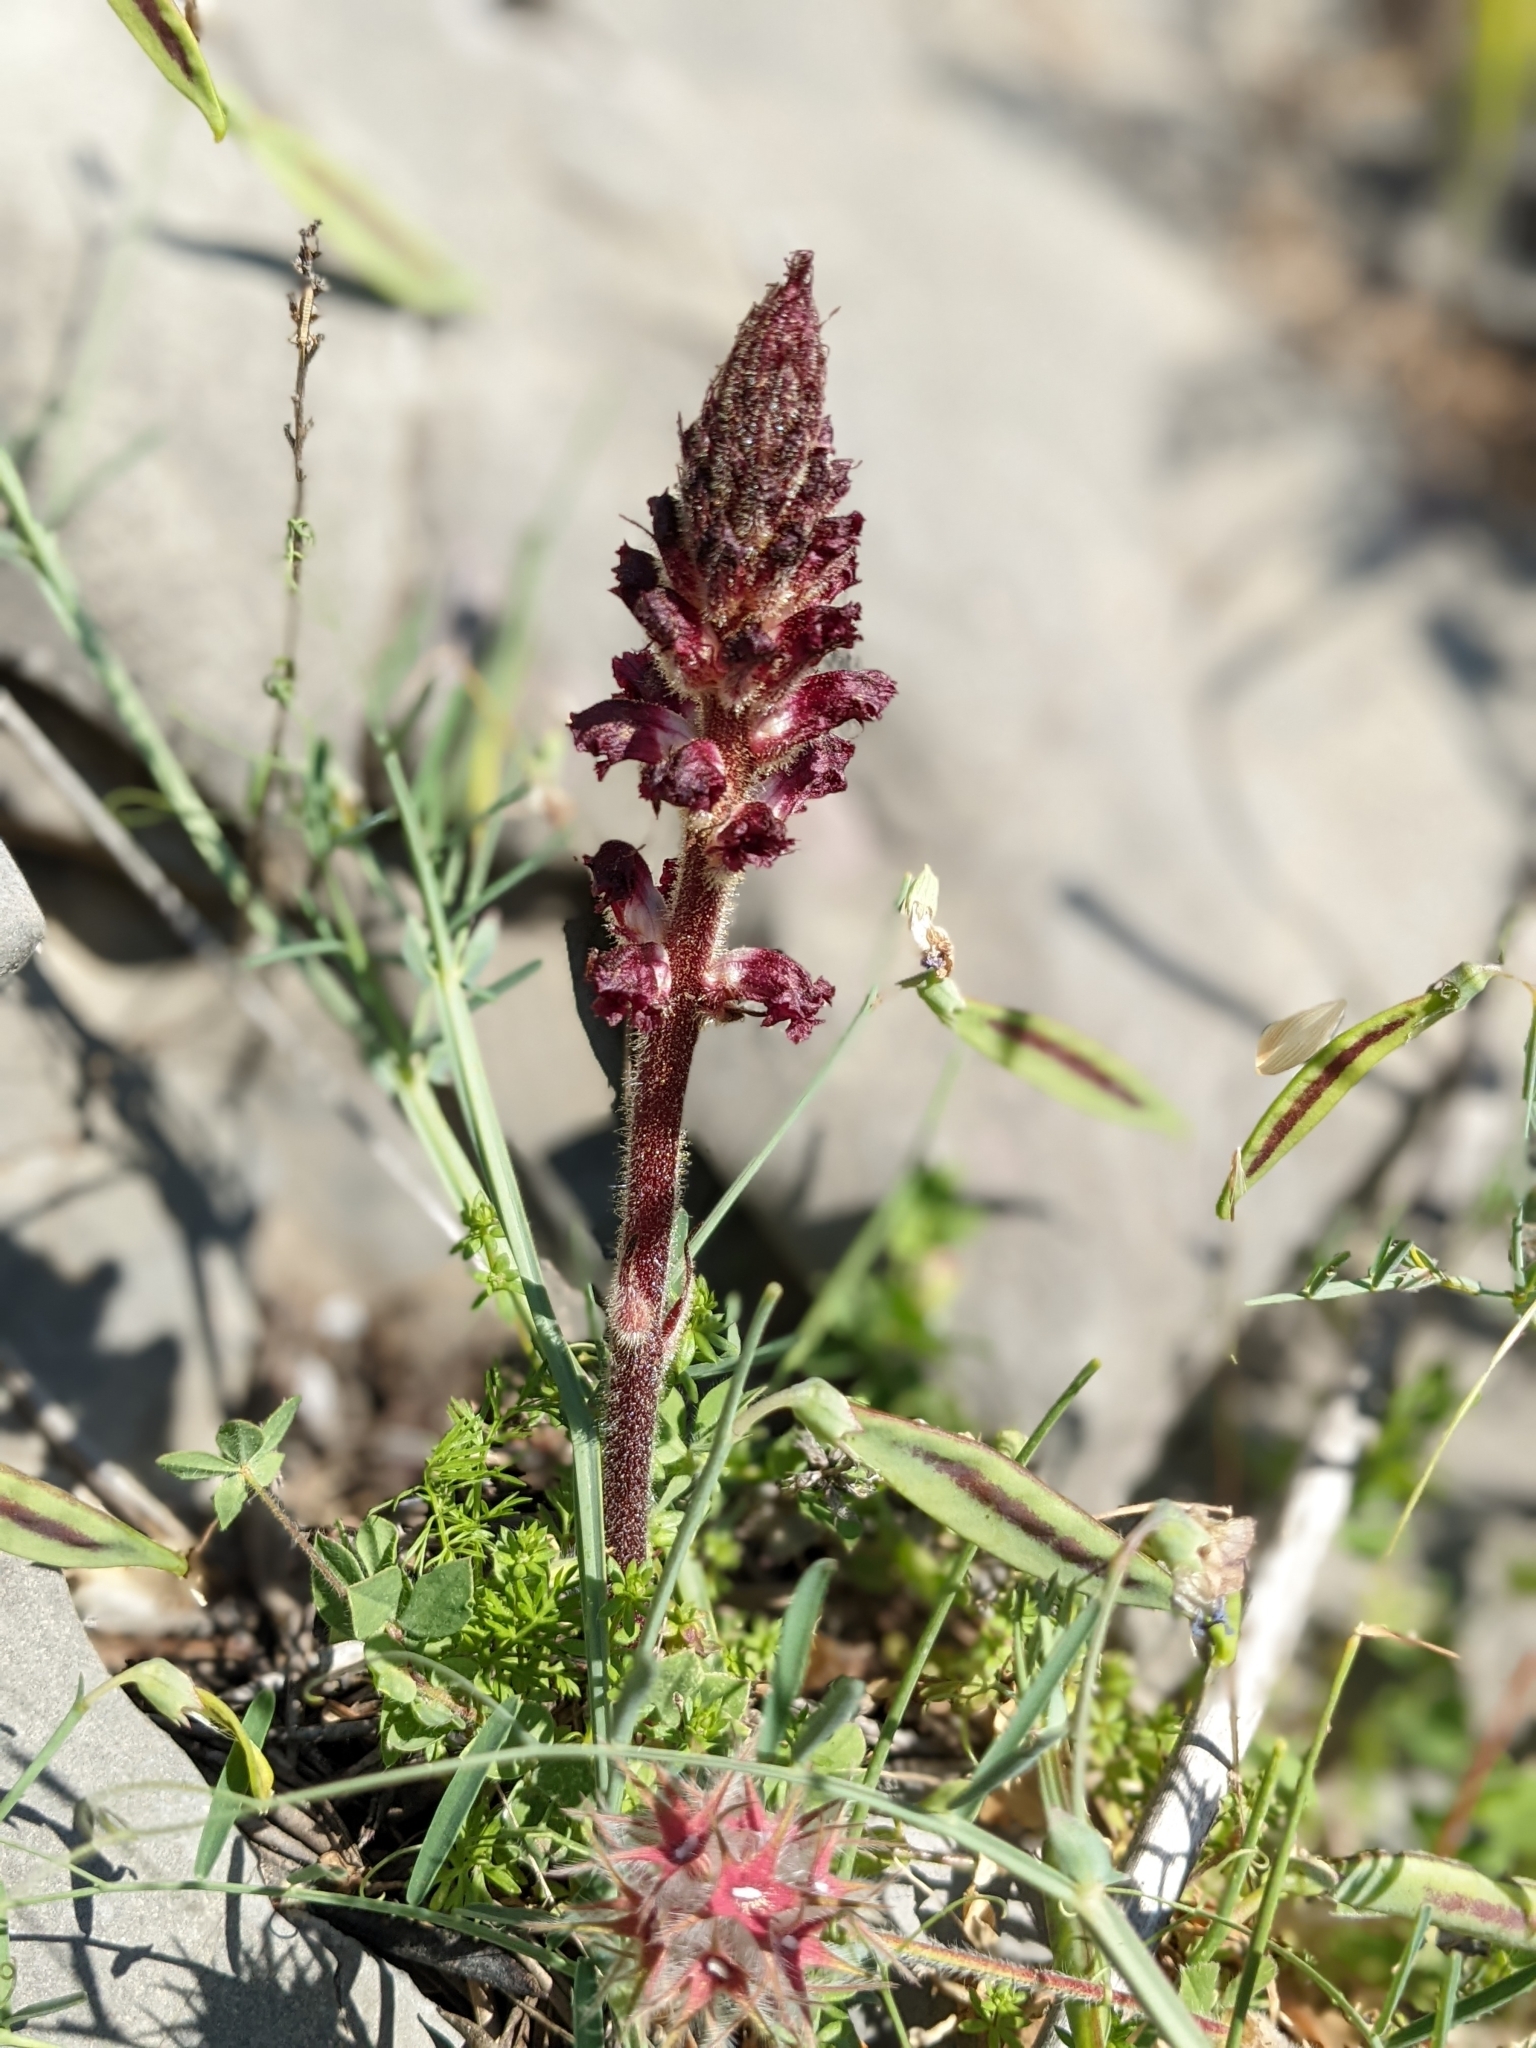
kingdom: Plantae
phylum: Tracheophyta
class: Magnoliopsida
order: Lamiales
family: Orobanchaceae
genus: Orobanche
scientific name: Orobanche sanguinea
